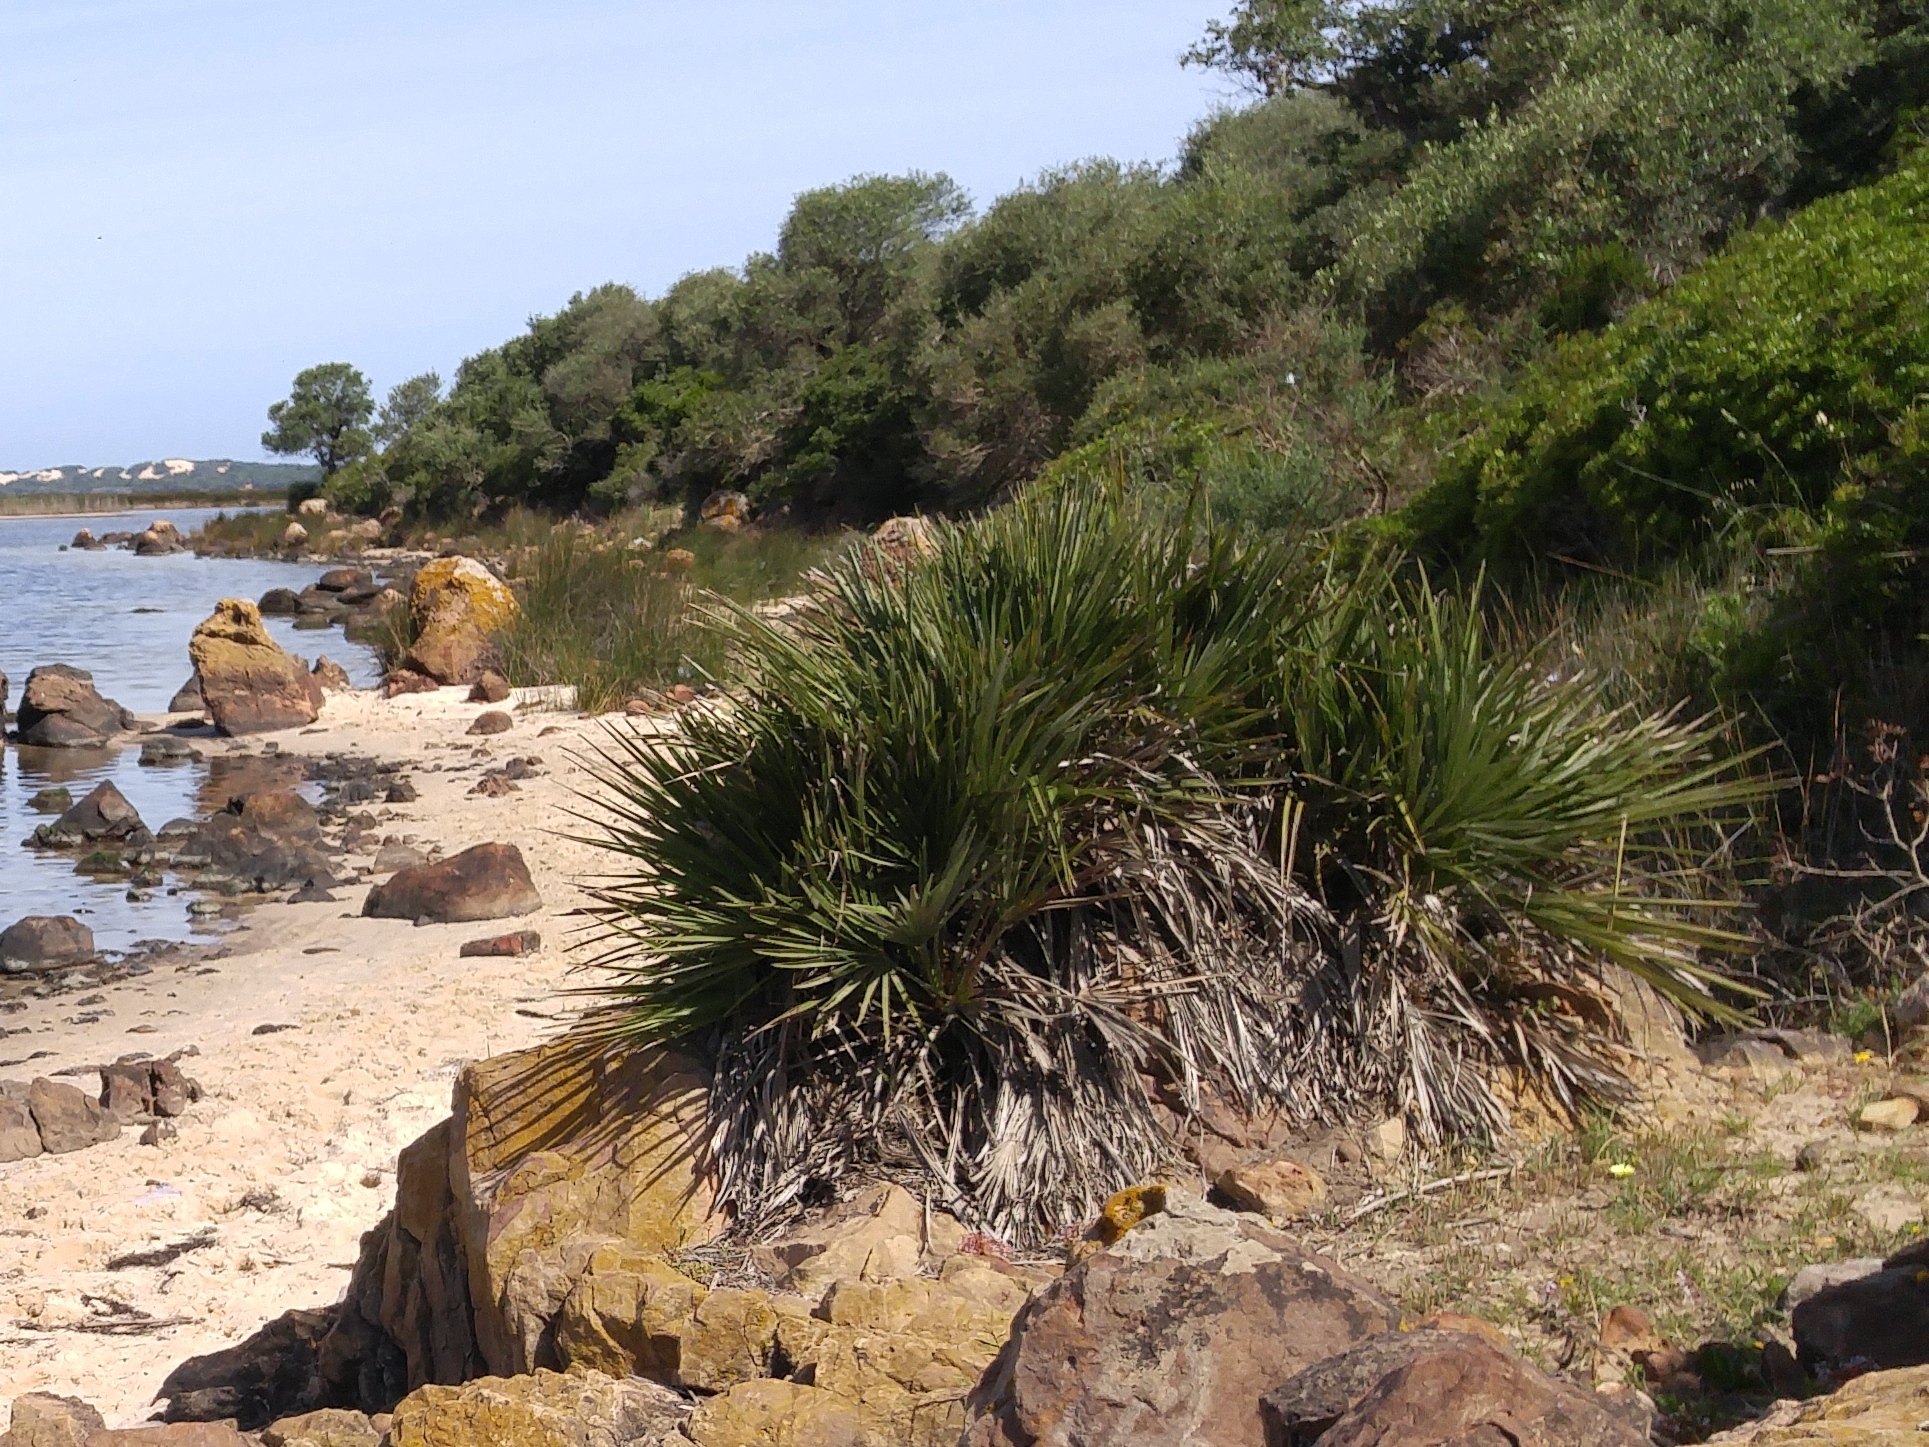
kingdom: Plantae
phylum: Tracheophyta
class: Liliopsida
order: Arecales
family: Arecaceae
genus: Chamaerops
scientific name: Chamaerops humilis
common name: Dwarf fan palm
